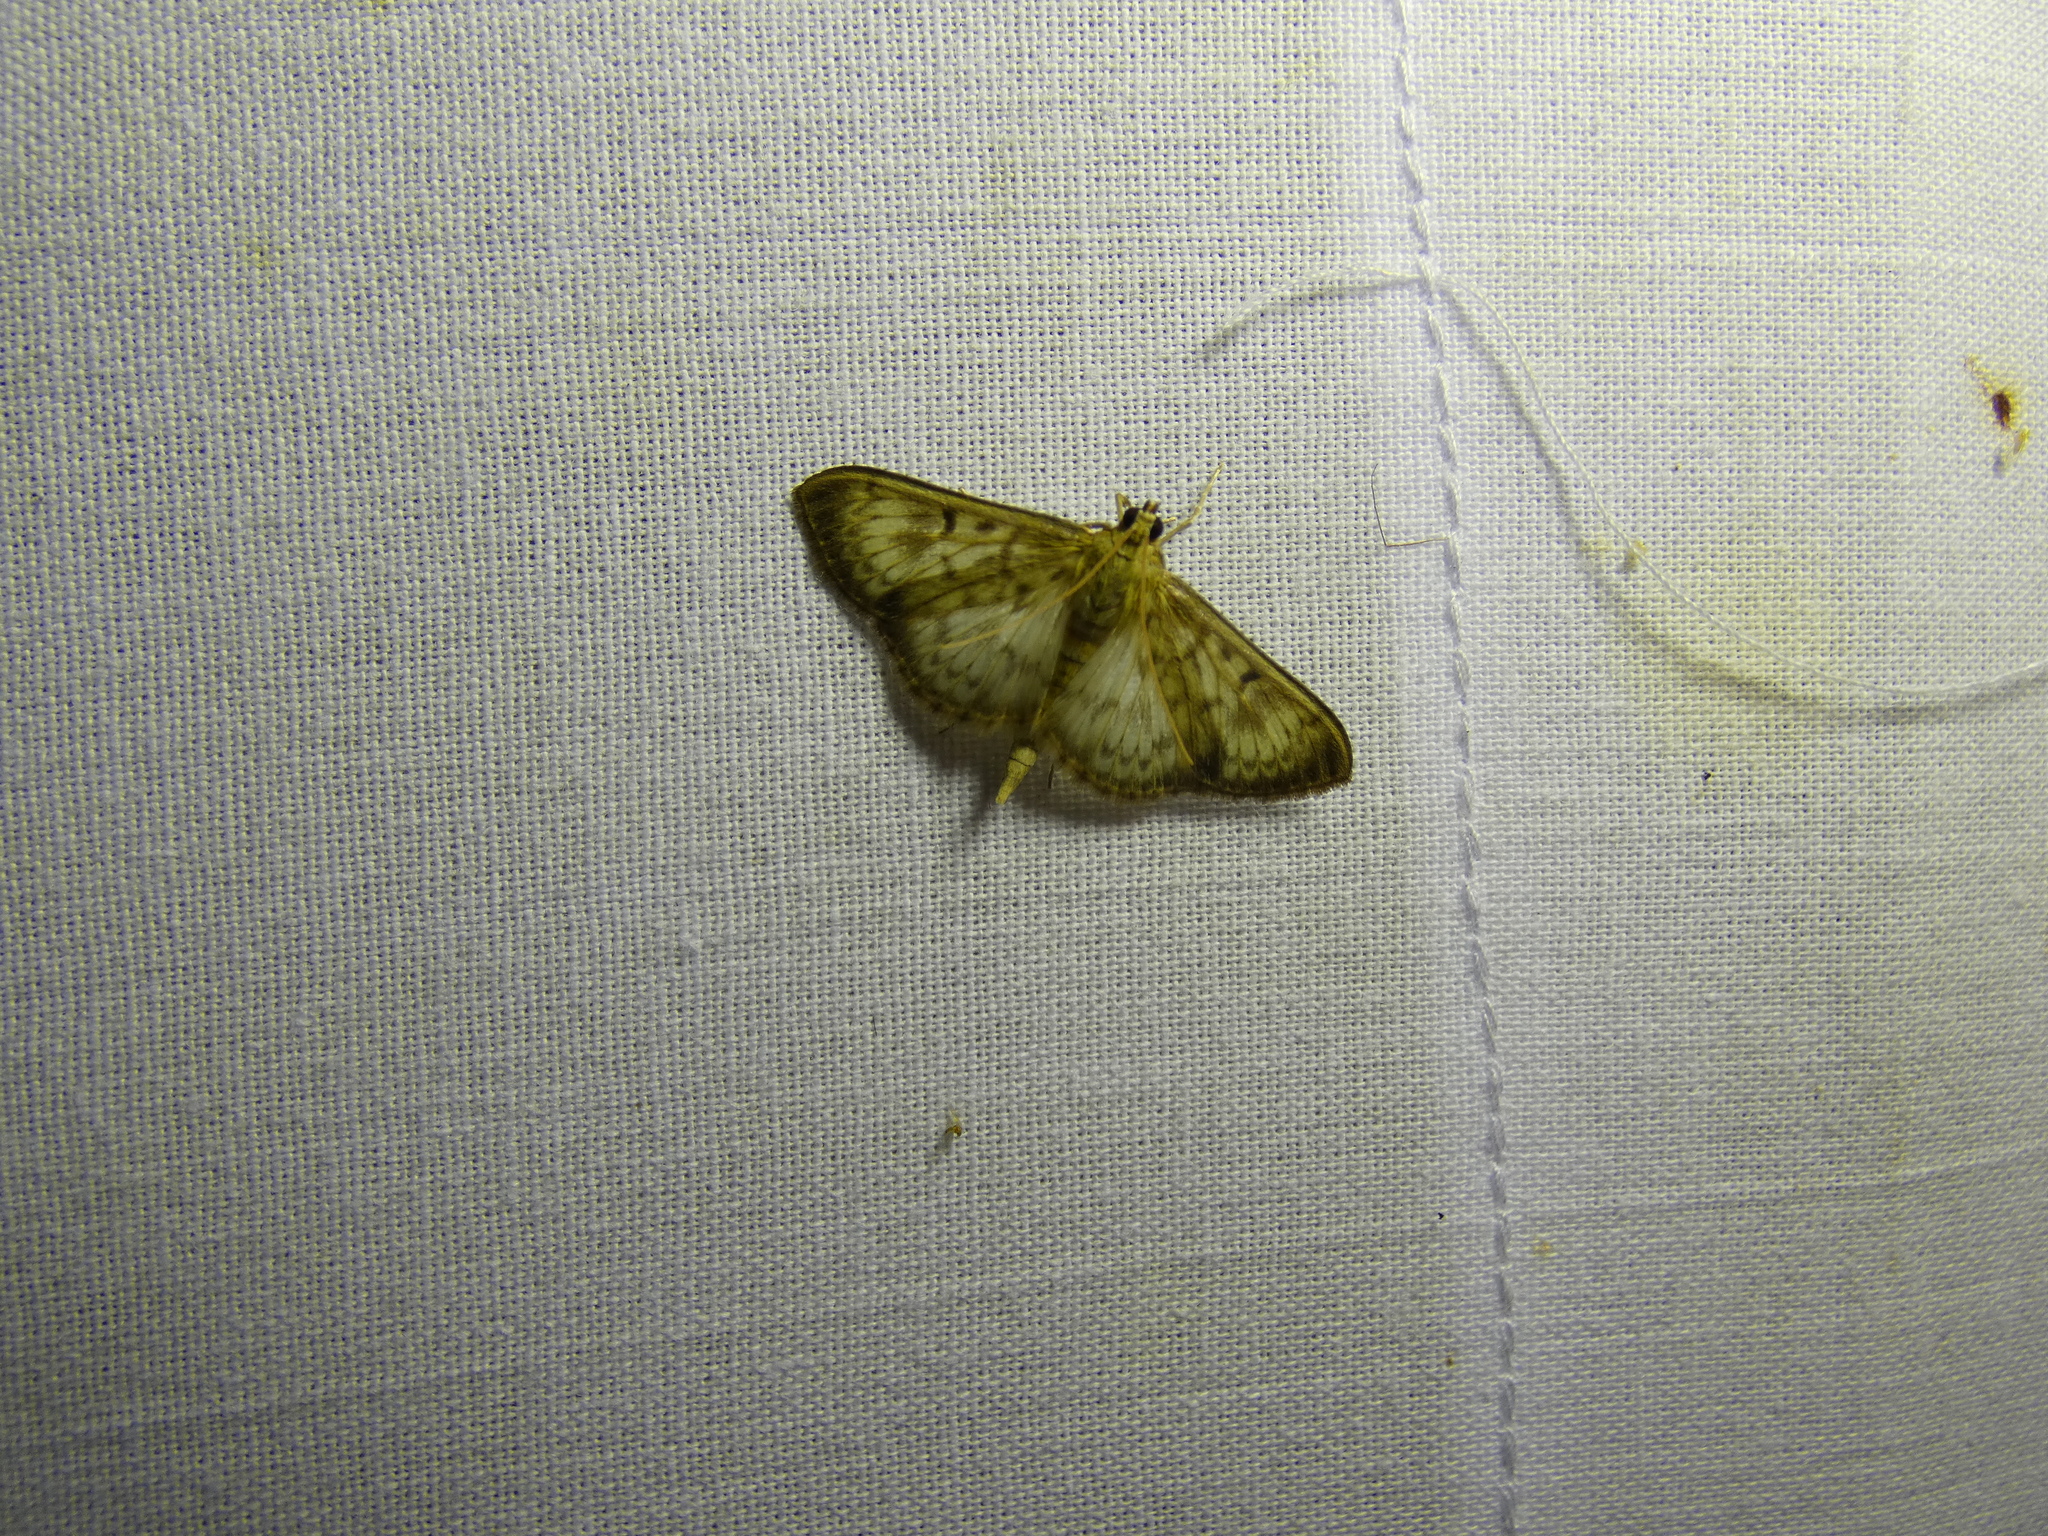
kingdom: Animalia
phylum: Arthropoda
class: Insecta
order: Lepidoptera
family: Crambidae
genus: Patania
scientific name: Patania ruralis
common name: Mother of pearl
